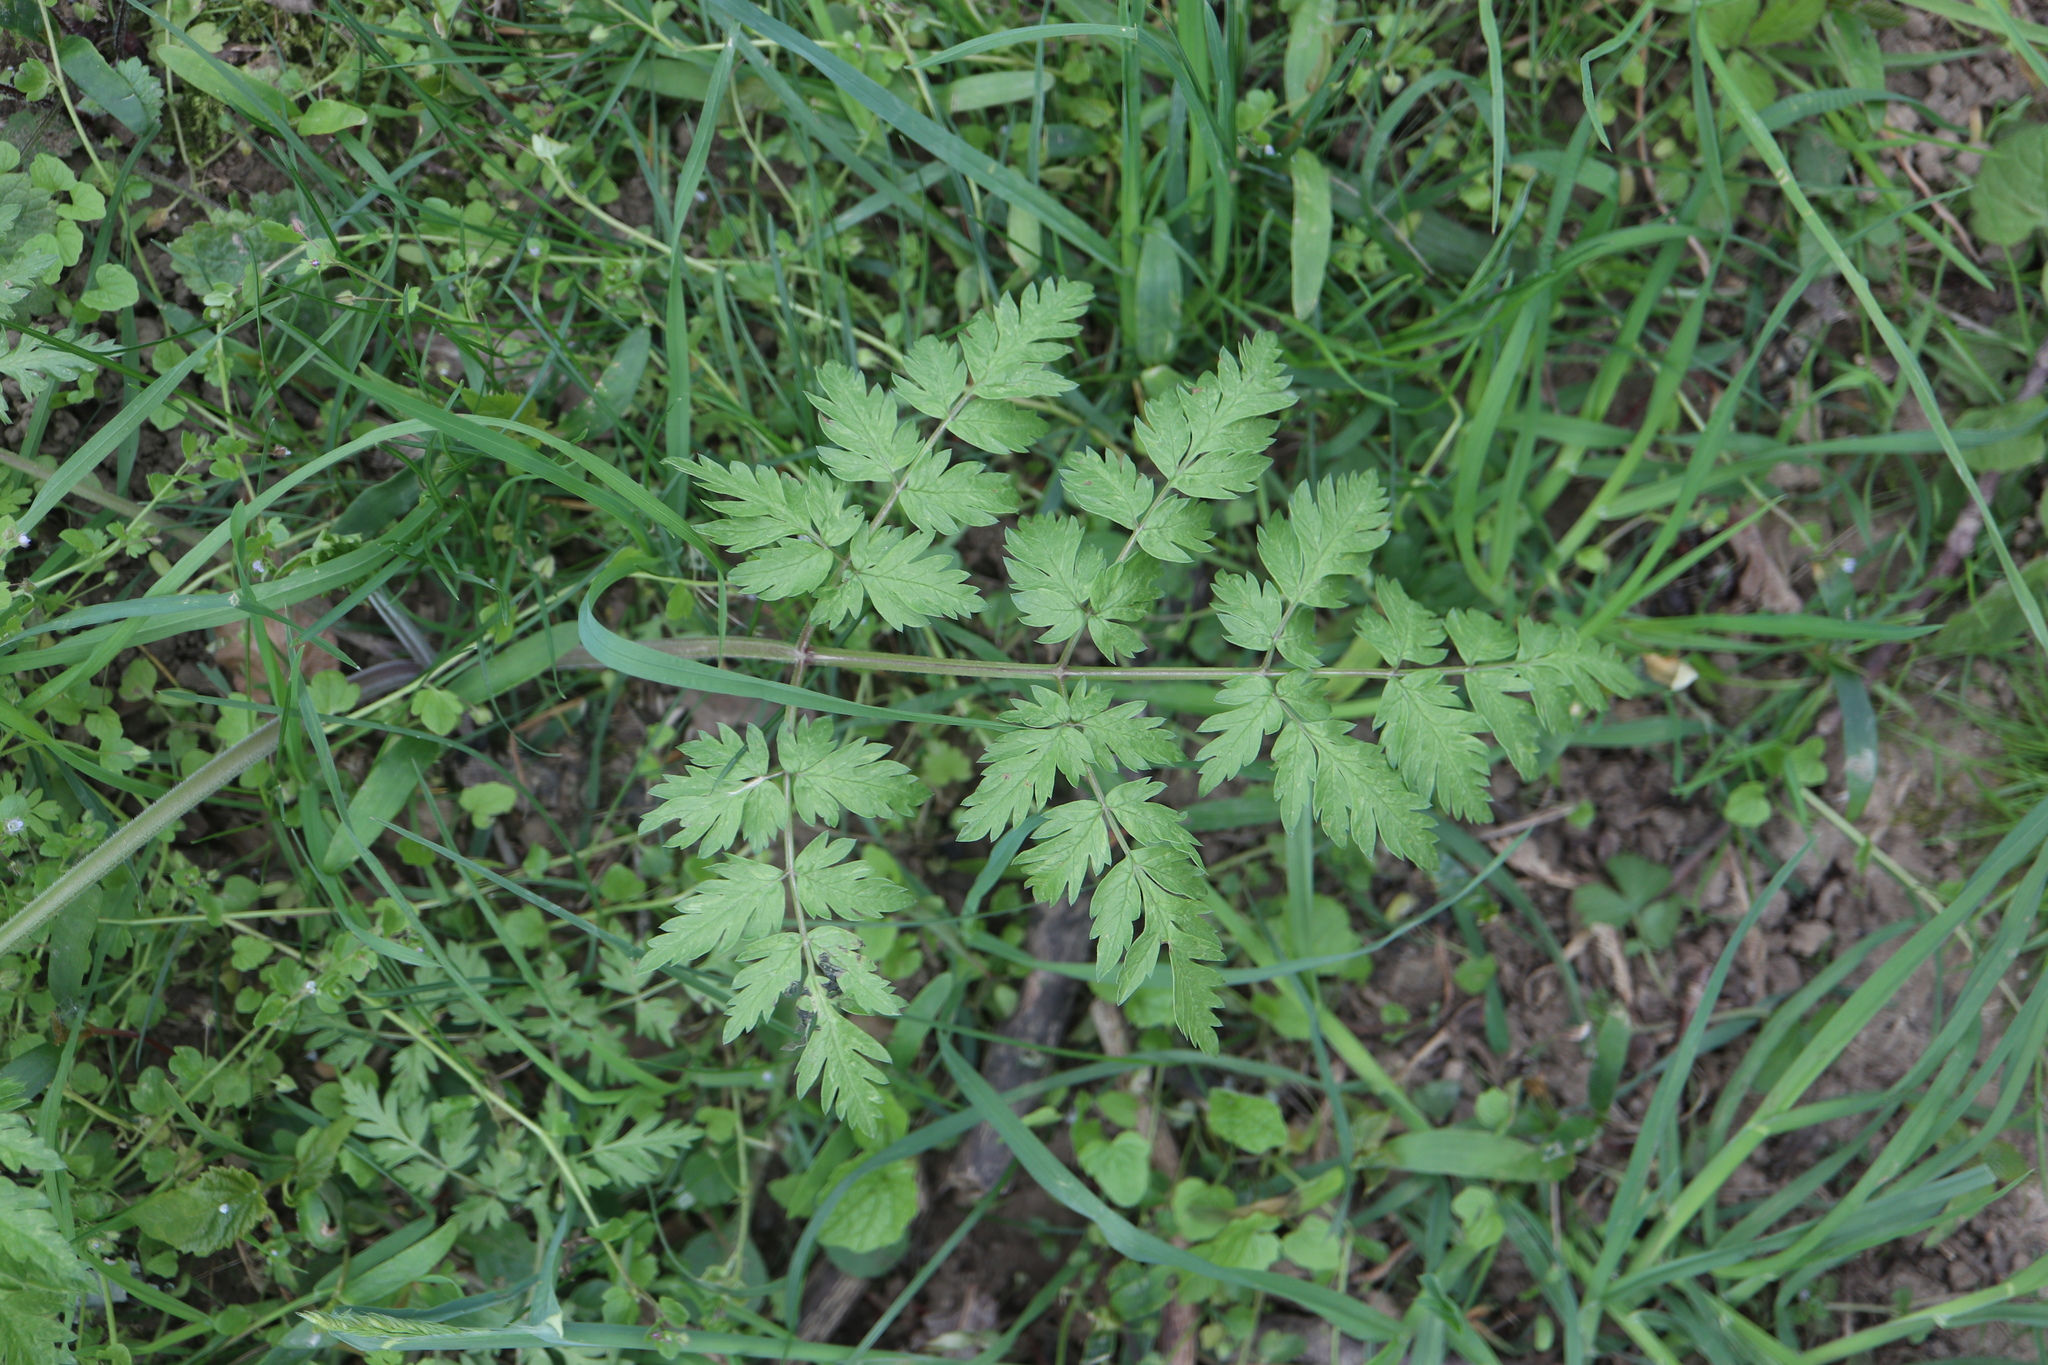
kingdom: Plantae
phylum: Tracheophyta
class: Magnoliopsida
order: Apiales
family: Apiaceae
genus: Anthriscus
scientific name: Anthriscus sylvestris
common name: Cow parsley
